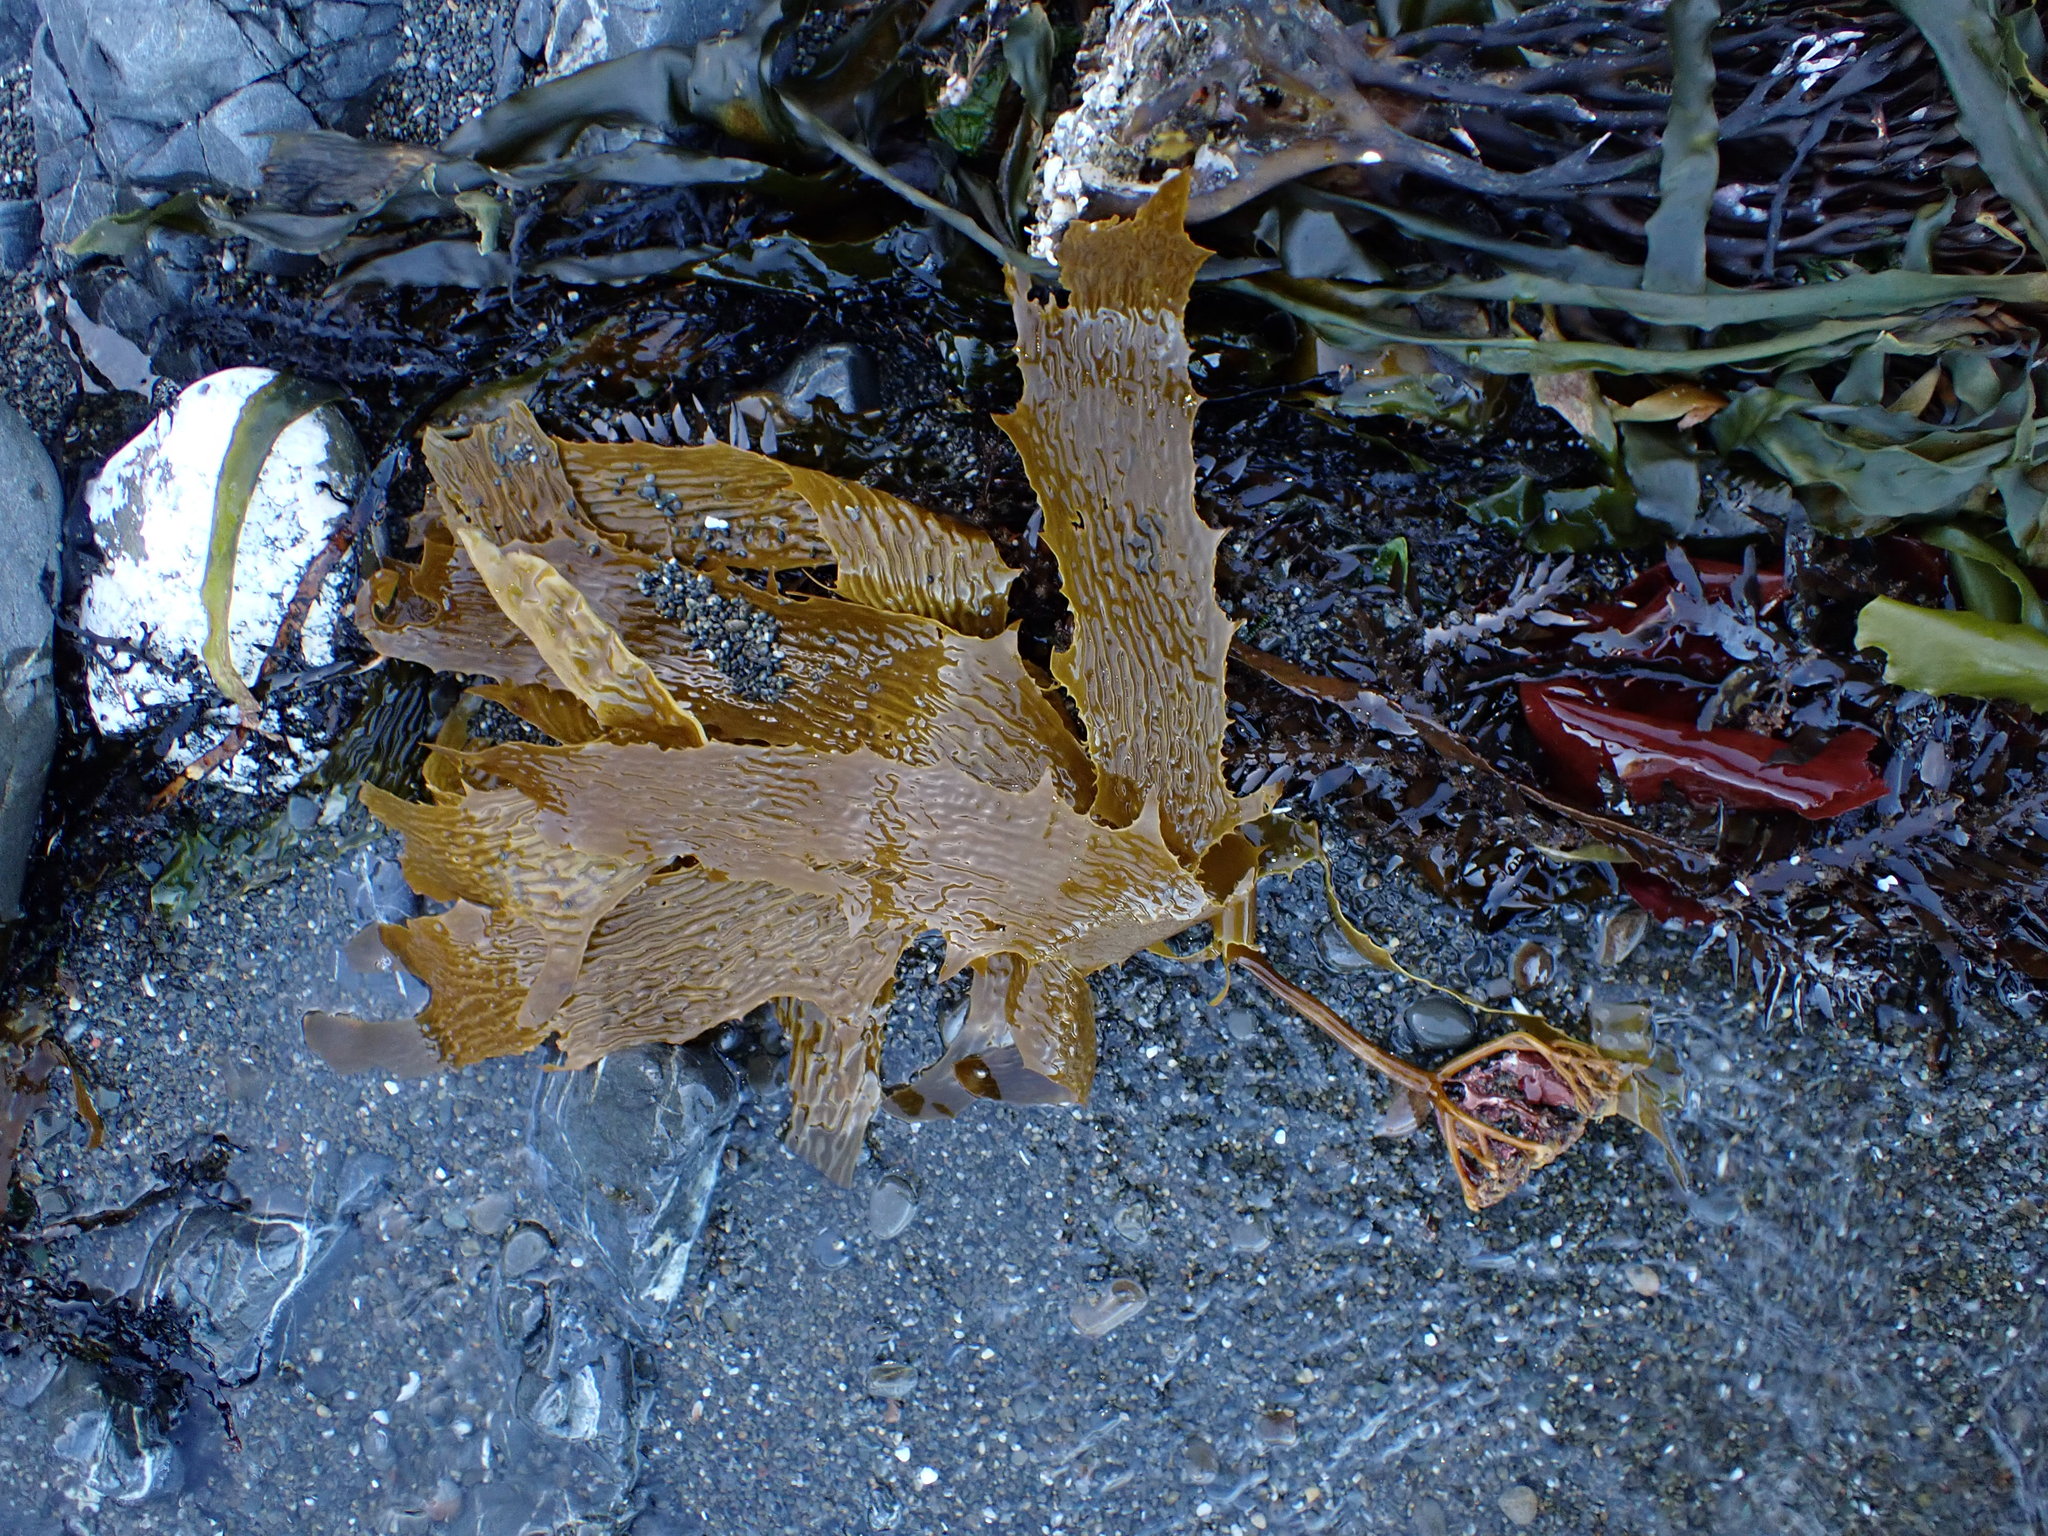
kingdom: Chromista
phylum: Ochrophyta
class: Phaeophyceae
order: Laminariales
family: Lessoniaceae
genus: Ecklonia
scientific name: Ecklonia radiata
